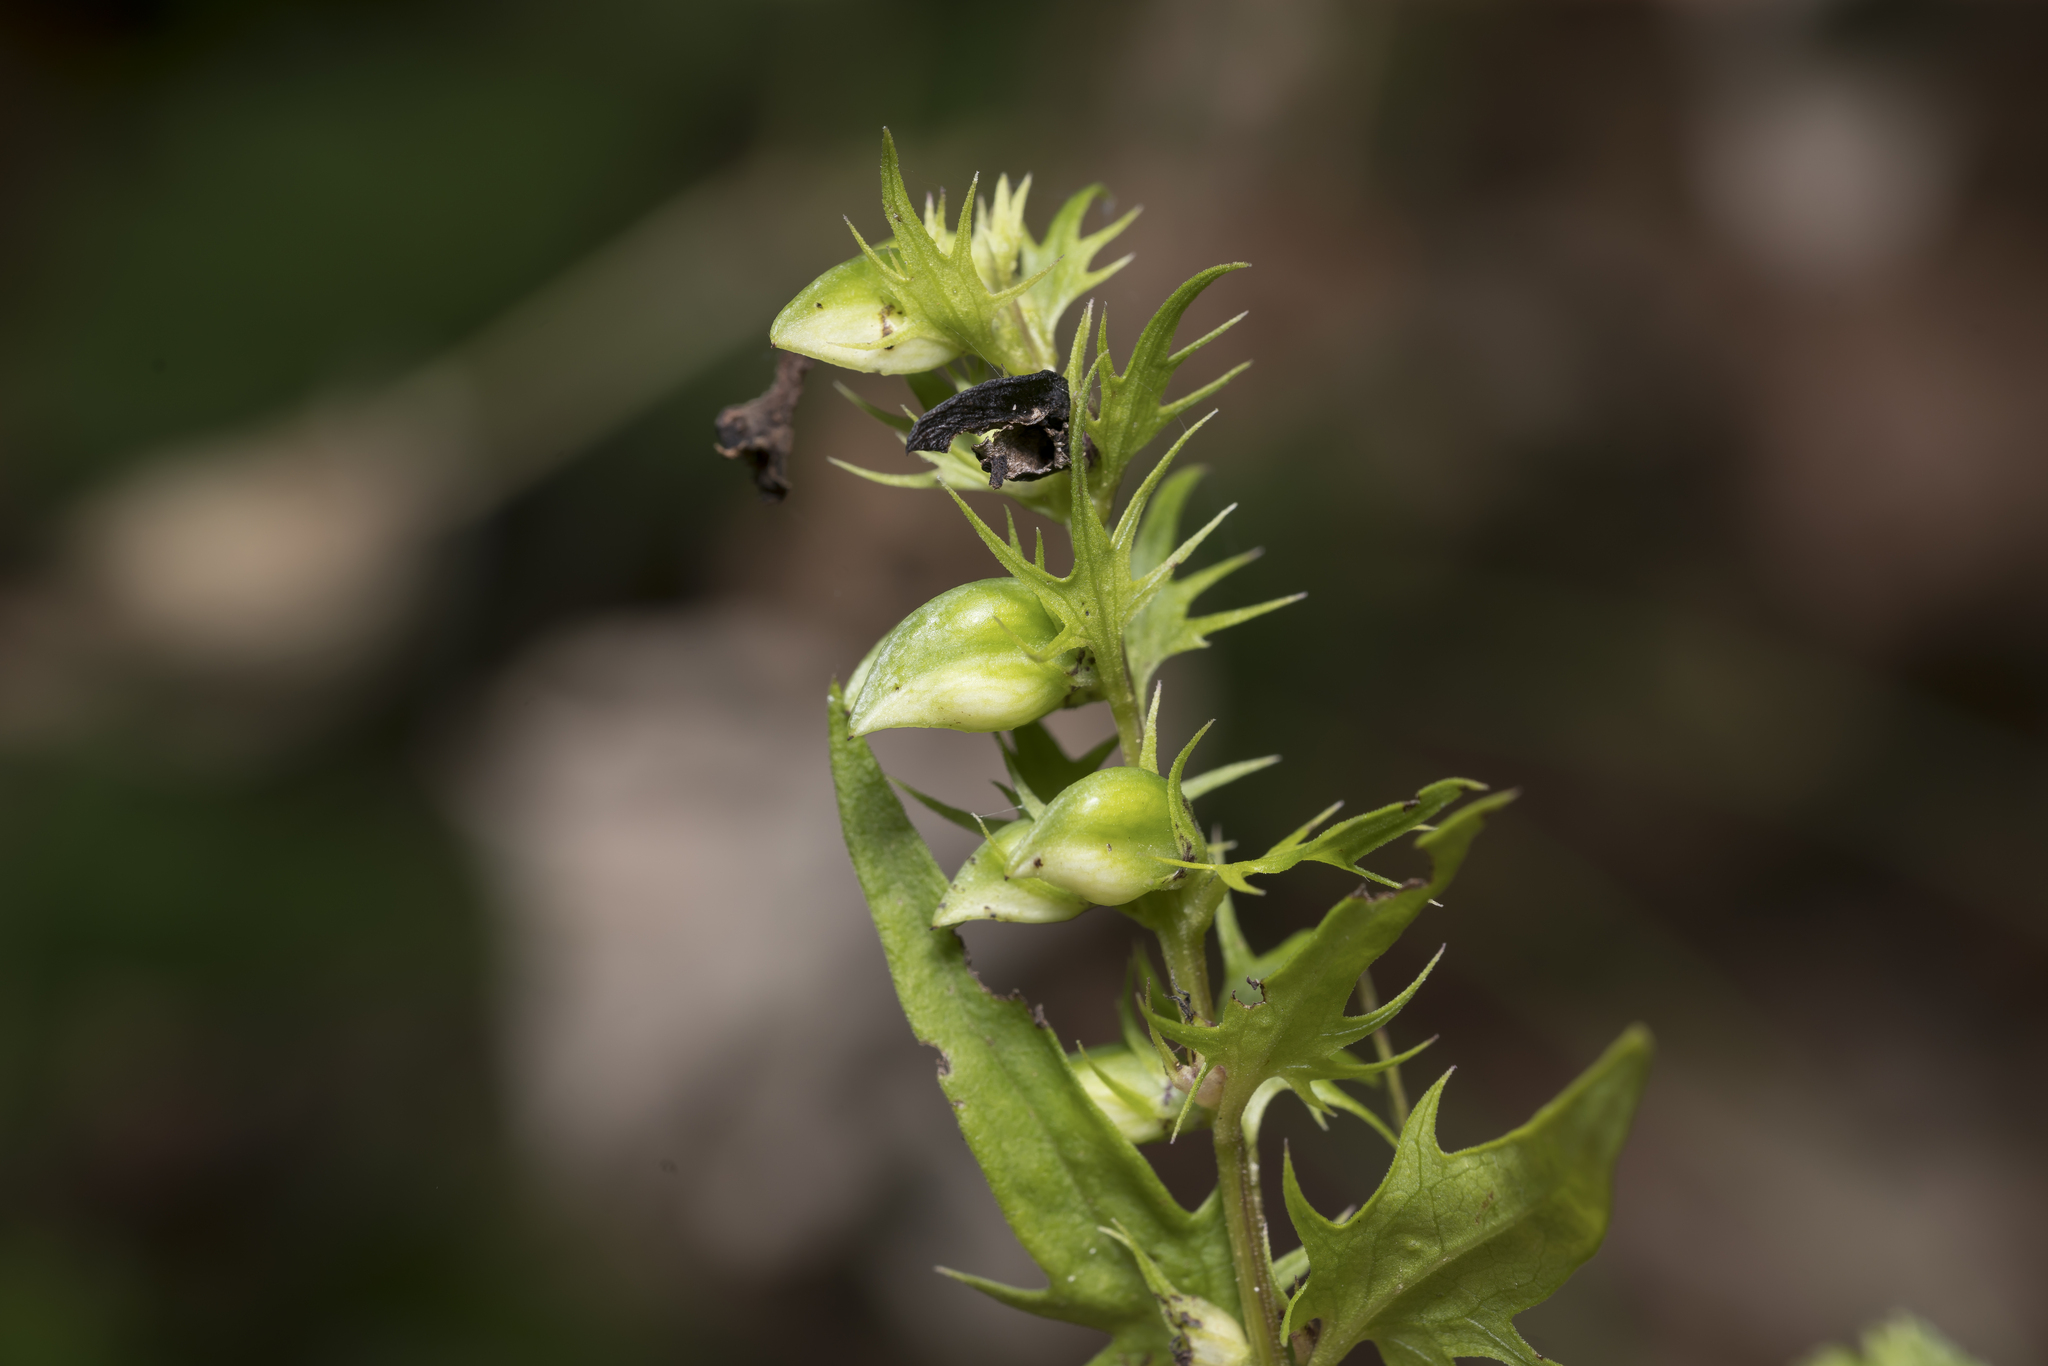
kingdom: Plantae
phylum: Tracheophyta
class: Magnoliopsida
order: Lamiales
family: Orobanchaceae
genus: Melampyrum
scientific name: Melampyrum pratense
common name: Common cow-wheat
